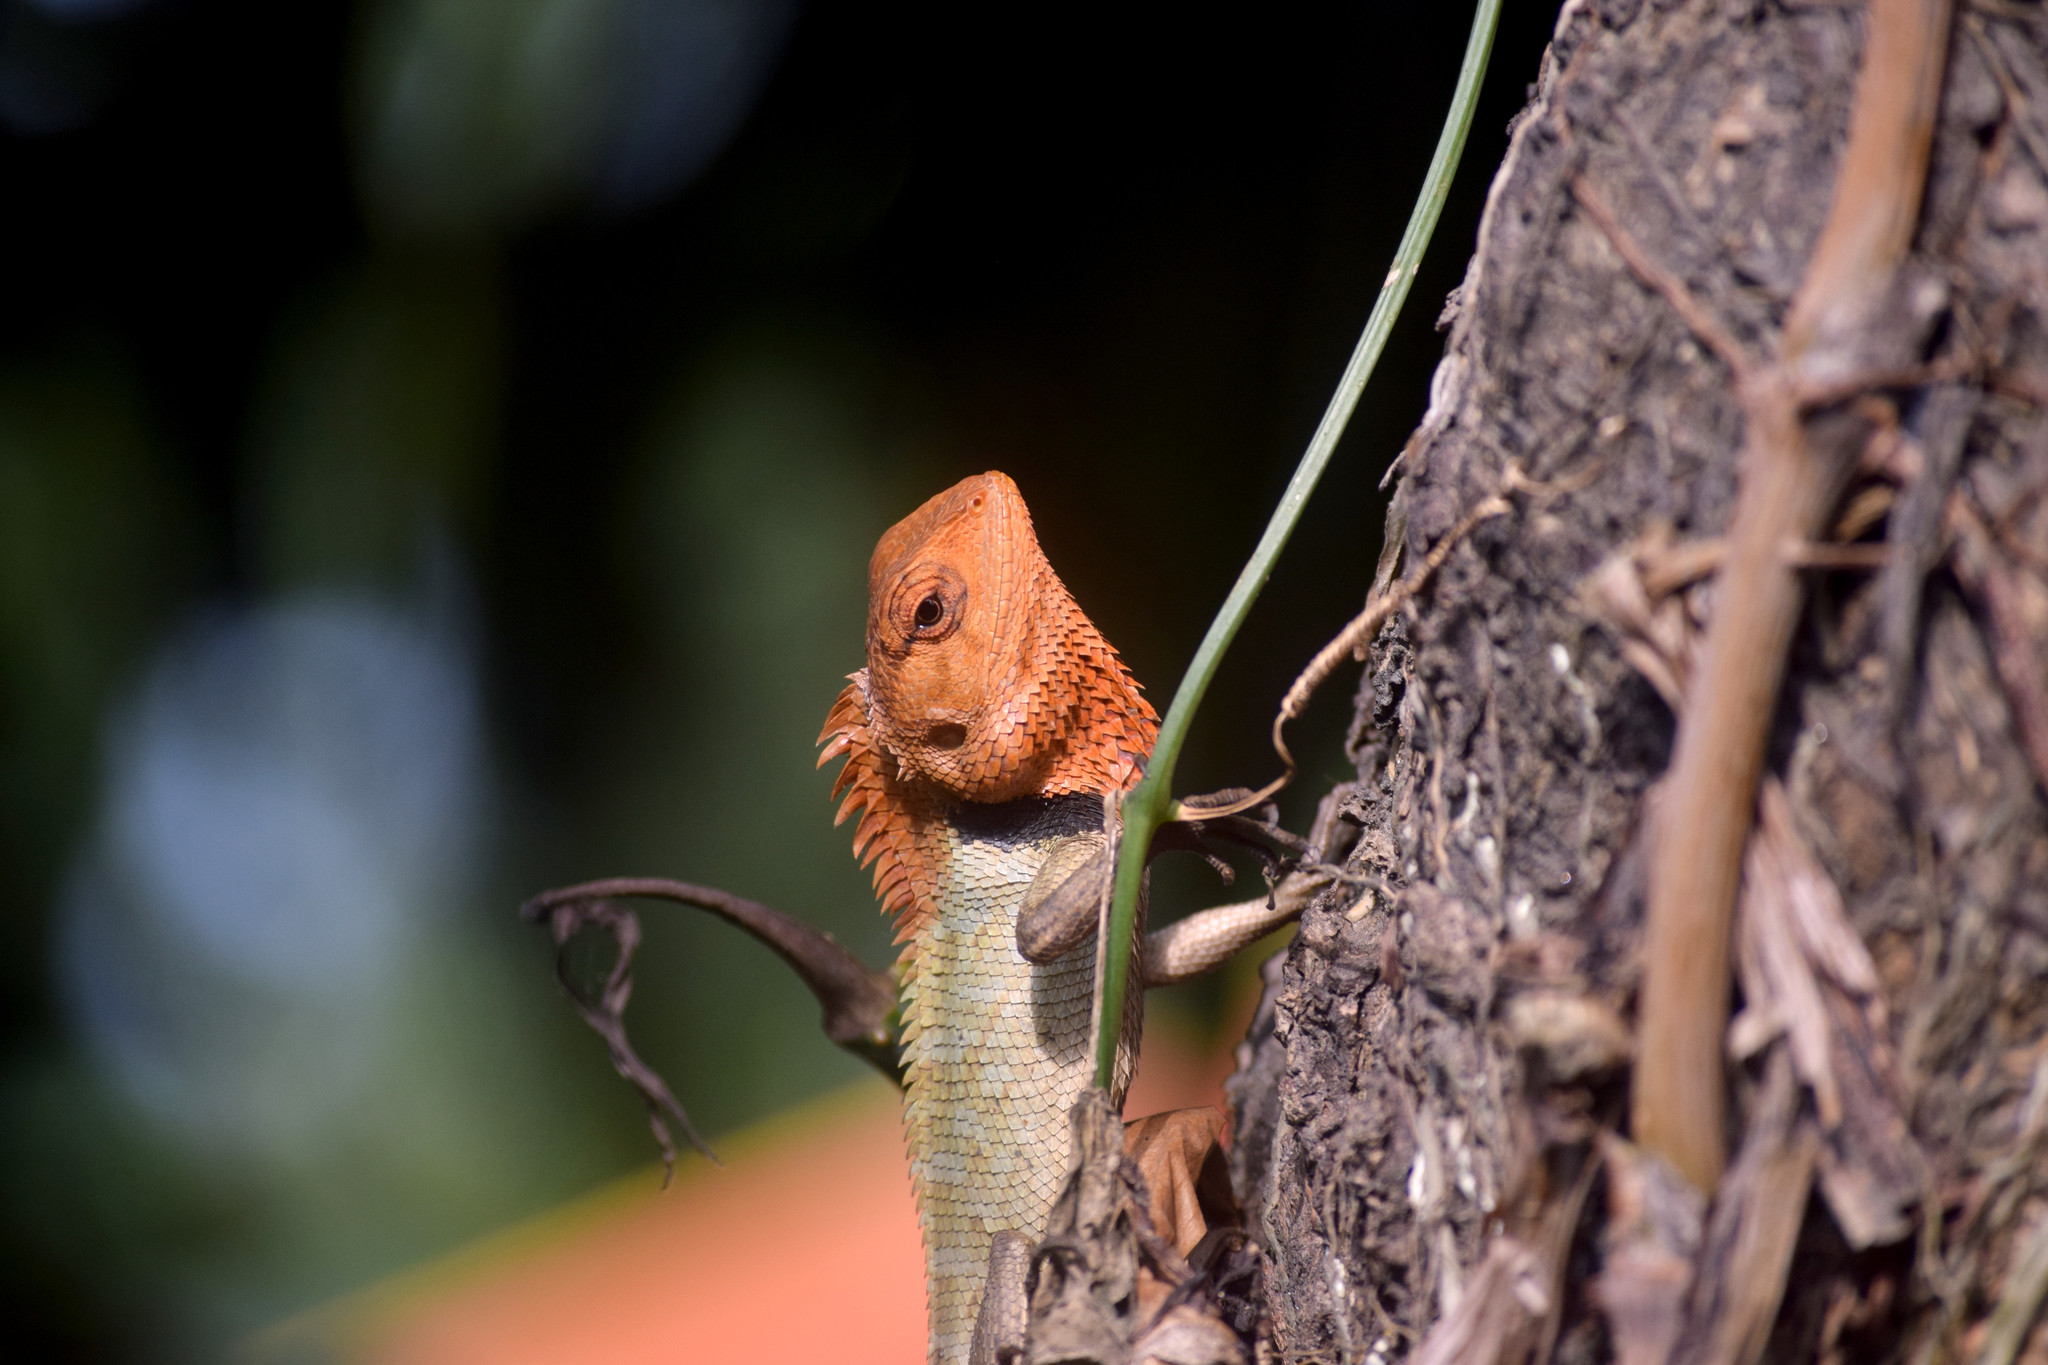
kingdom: Animalia
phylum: Chordata
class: Squamata
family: Agamidae
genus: Calotes
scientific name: Calotes versicolor
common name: Oriental garden lizard
